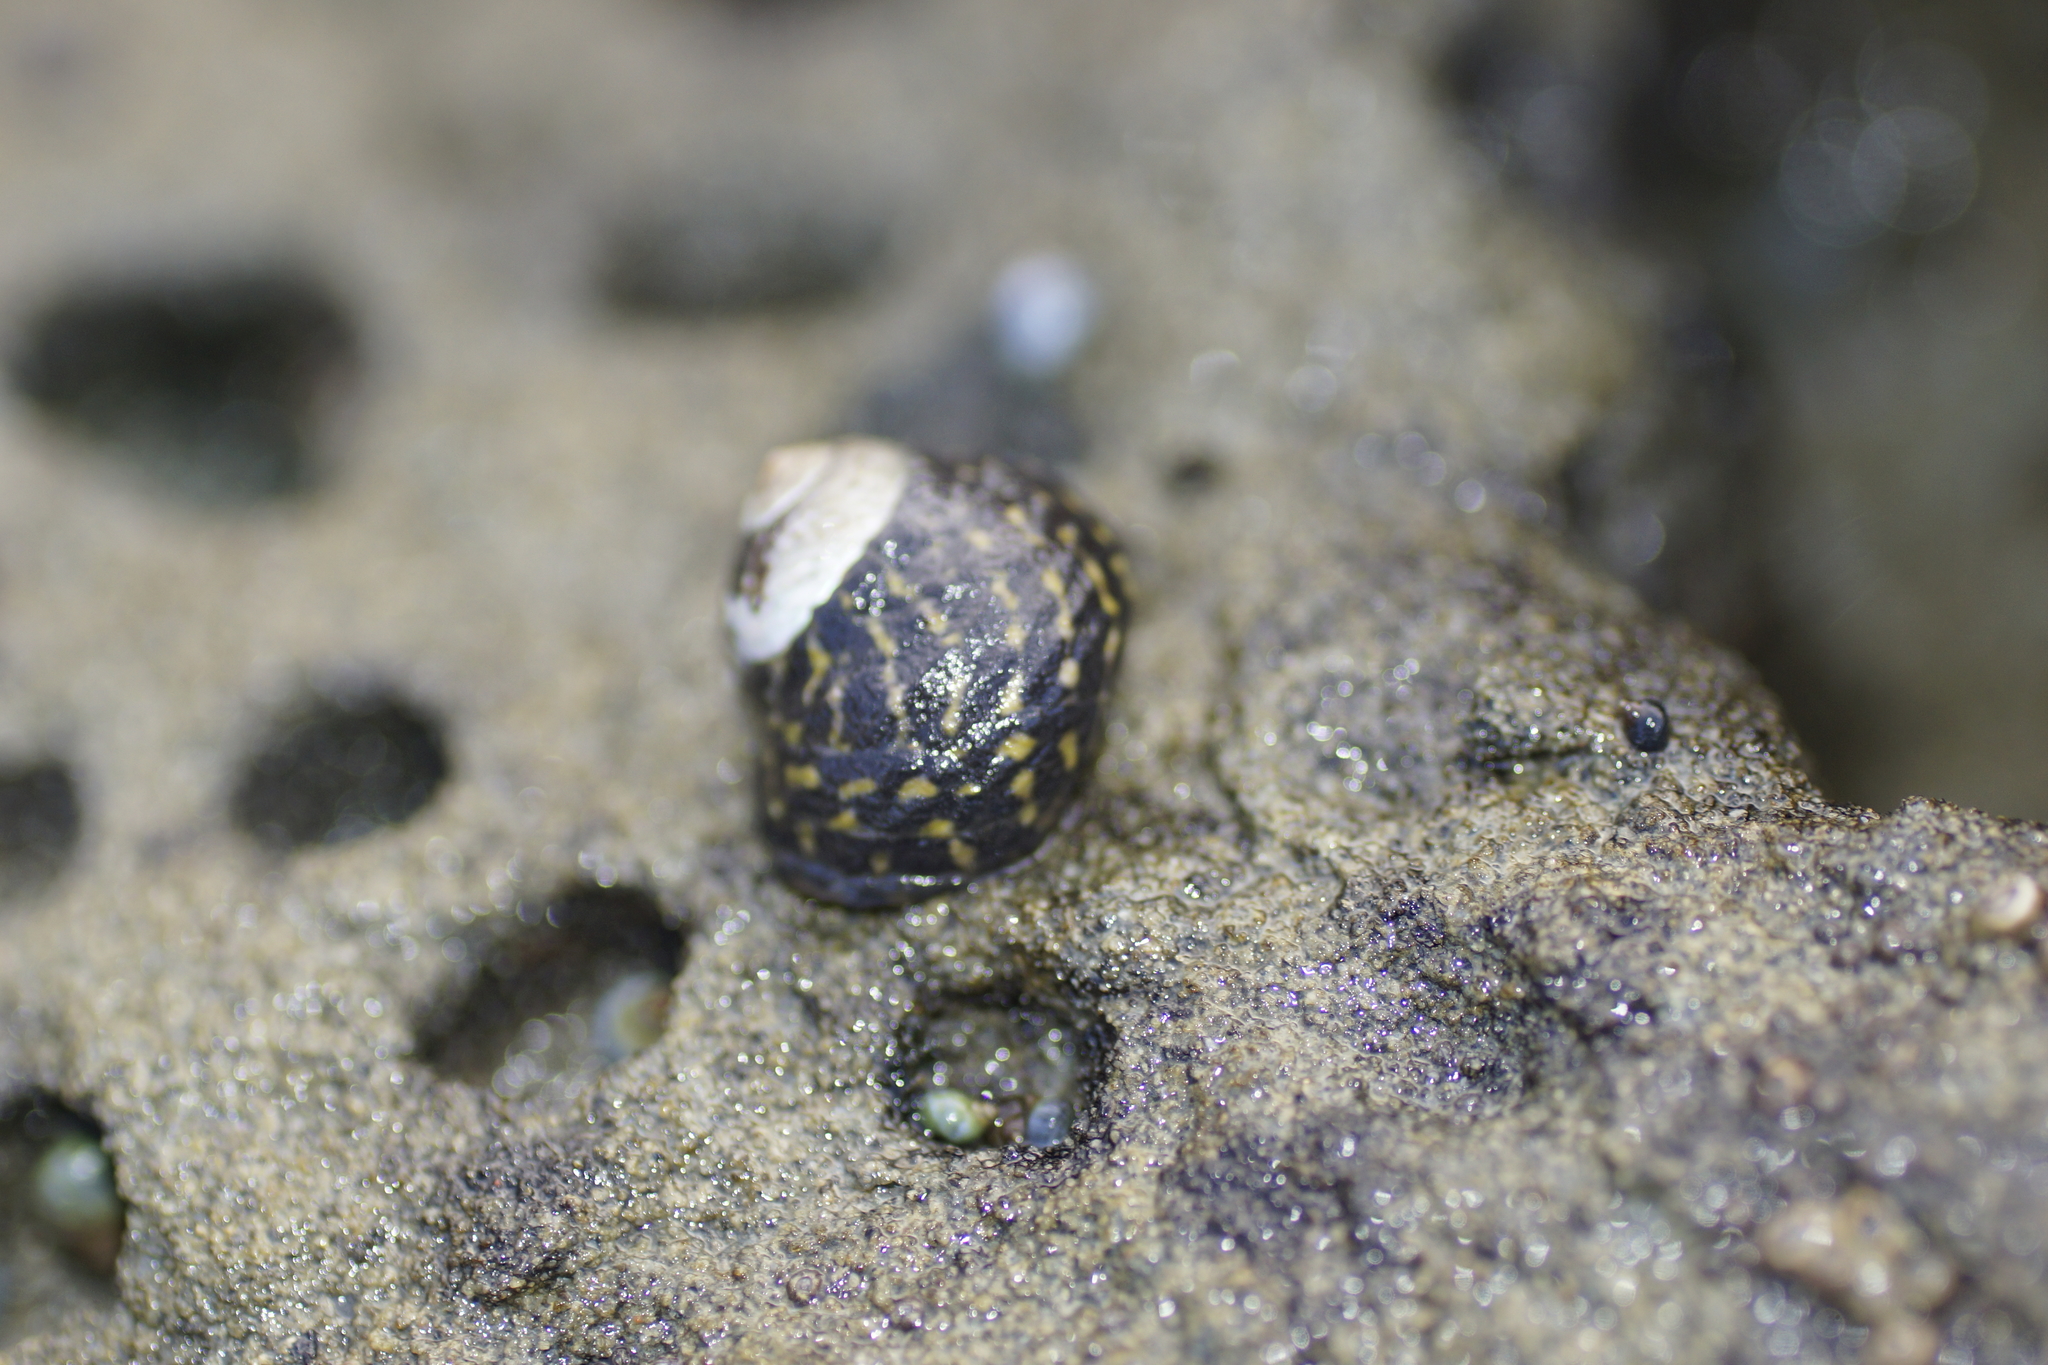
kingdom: Animalia
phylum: Mollusca
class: Gastropoda
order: Trochida
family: Trochidae
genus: Diloma
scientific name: Diloma concameratum
